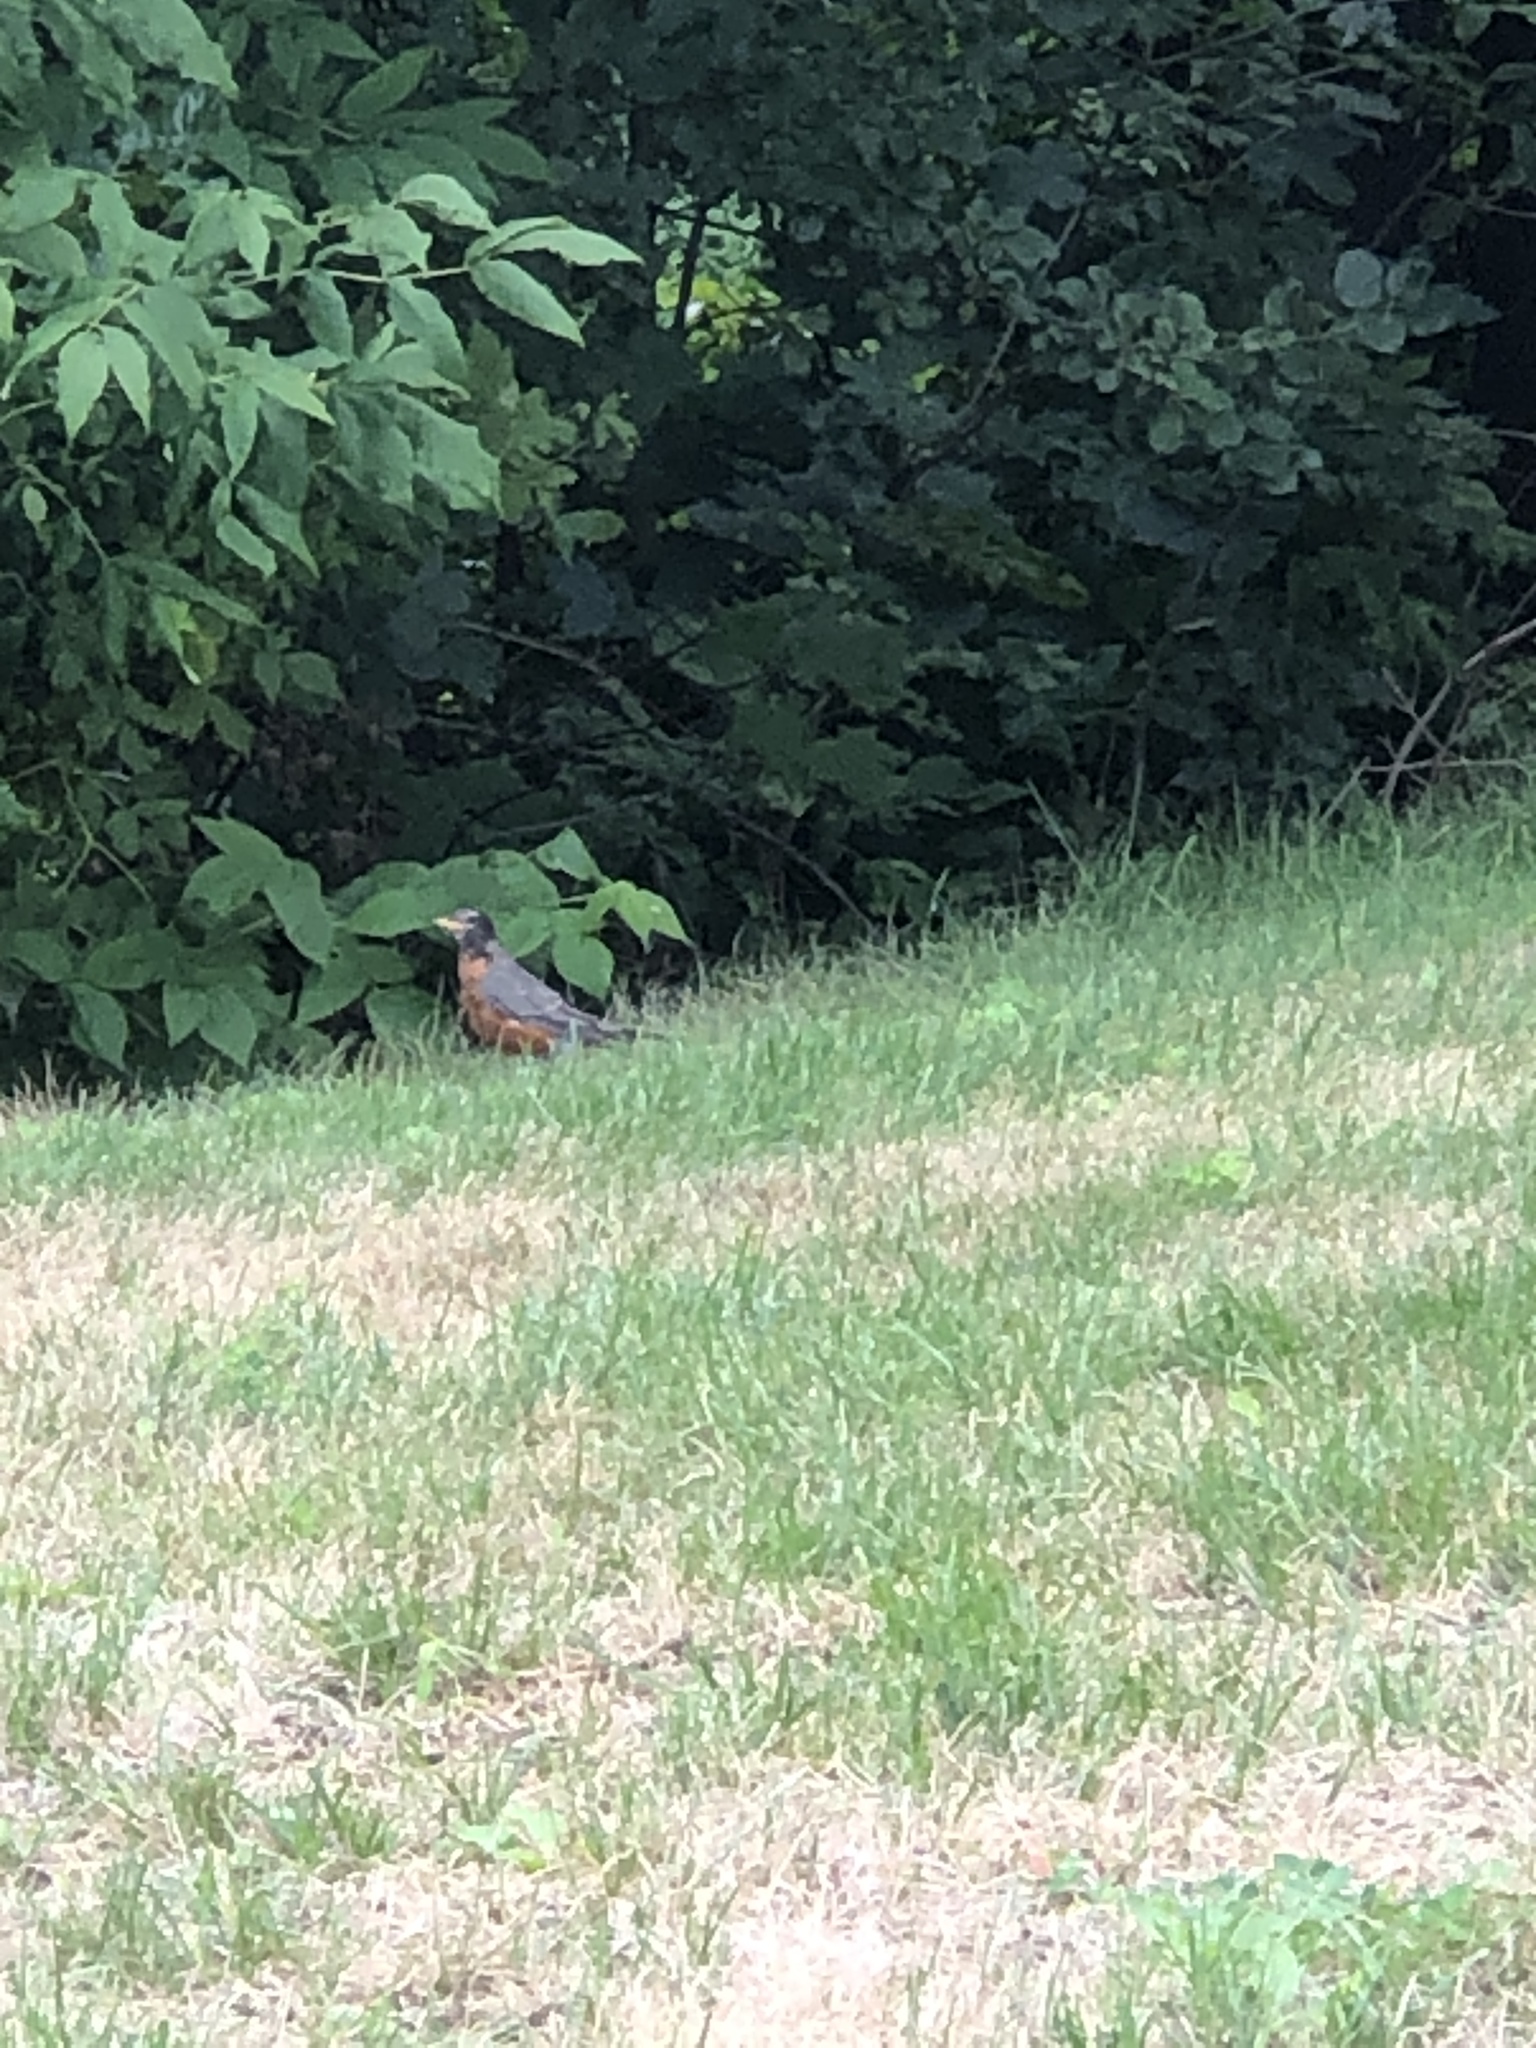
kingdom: Animalia
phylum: Chordata
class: Aves
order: Passeriformes
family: Turdidae
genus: Turdus
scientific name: Turdus migratorius
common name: American robin
